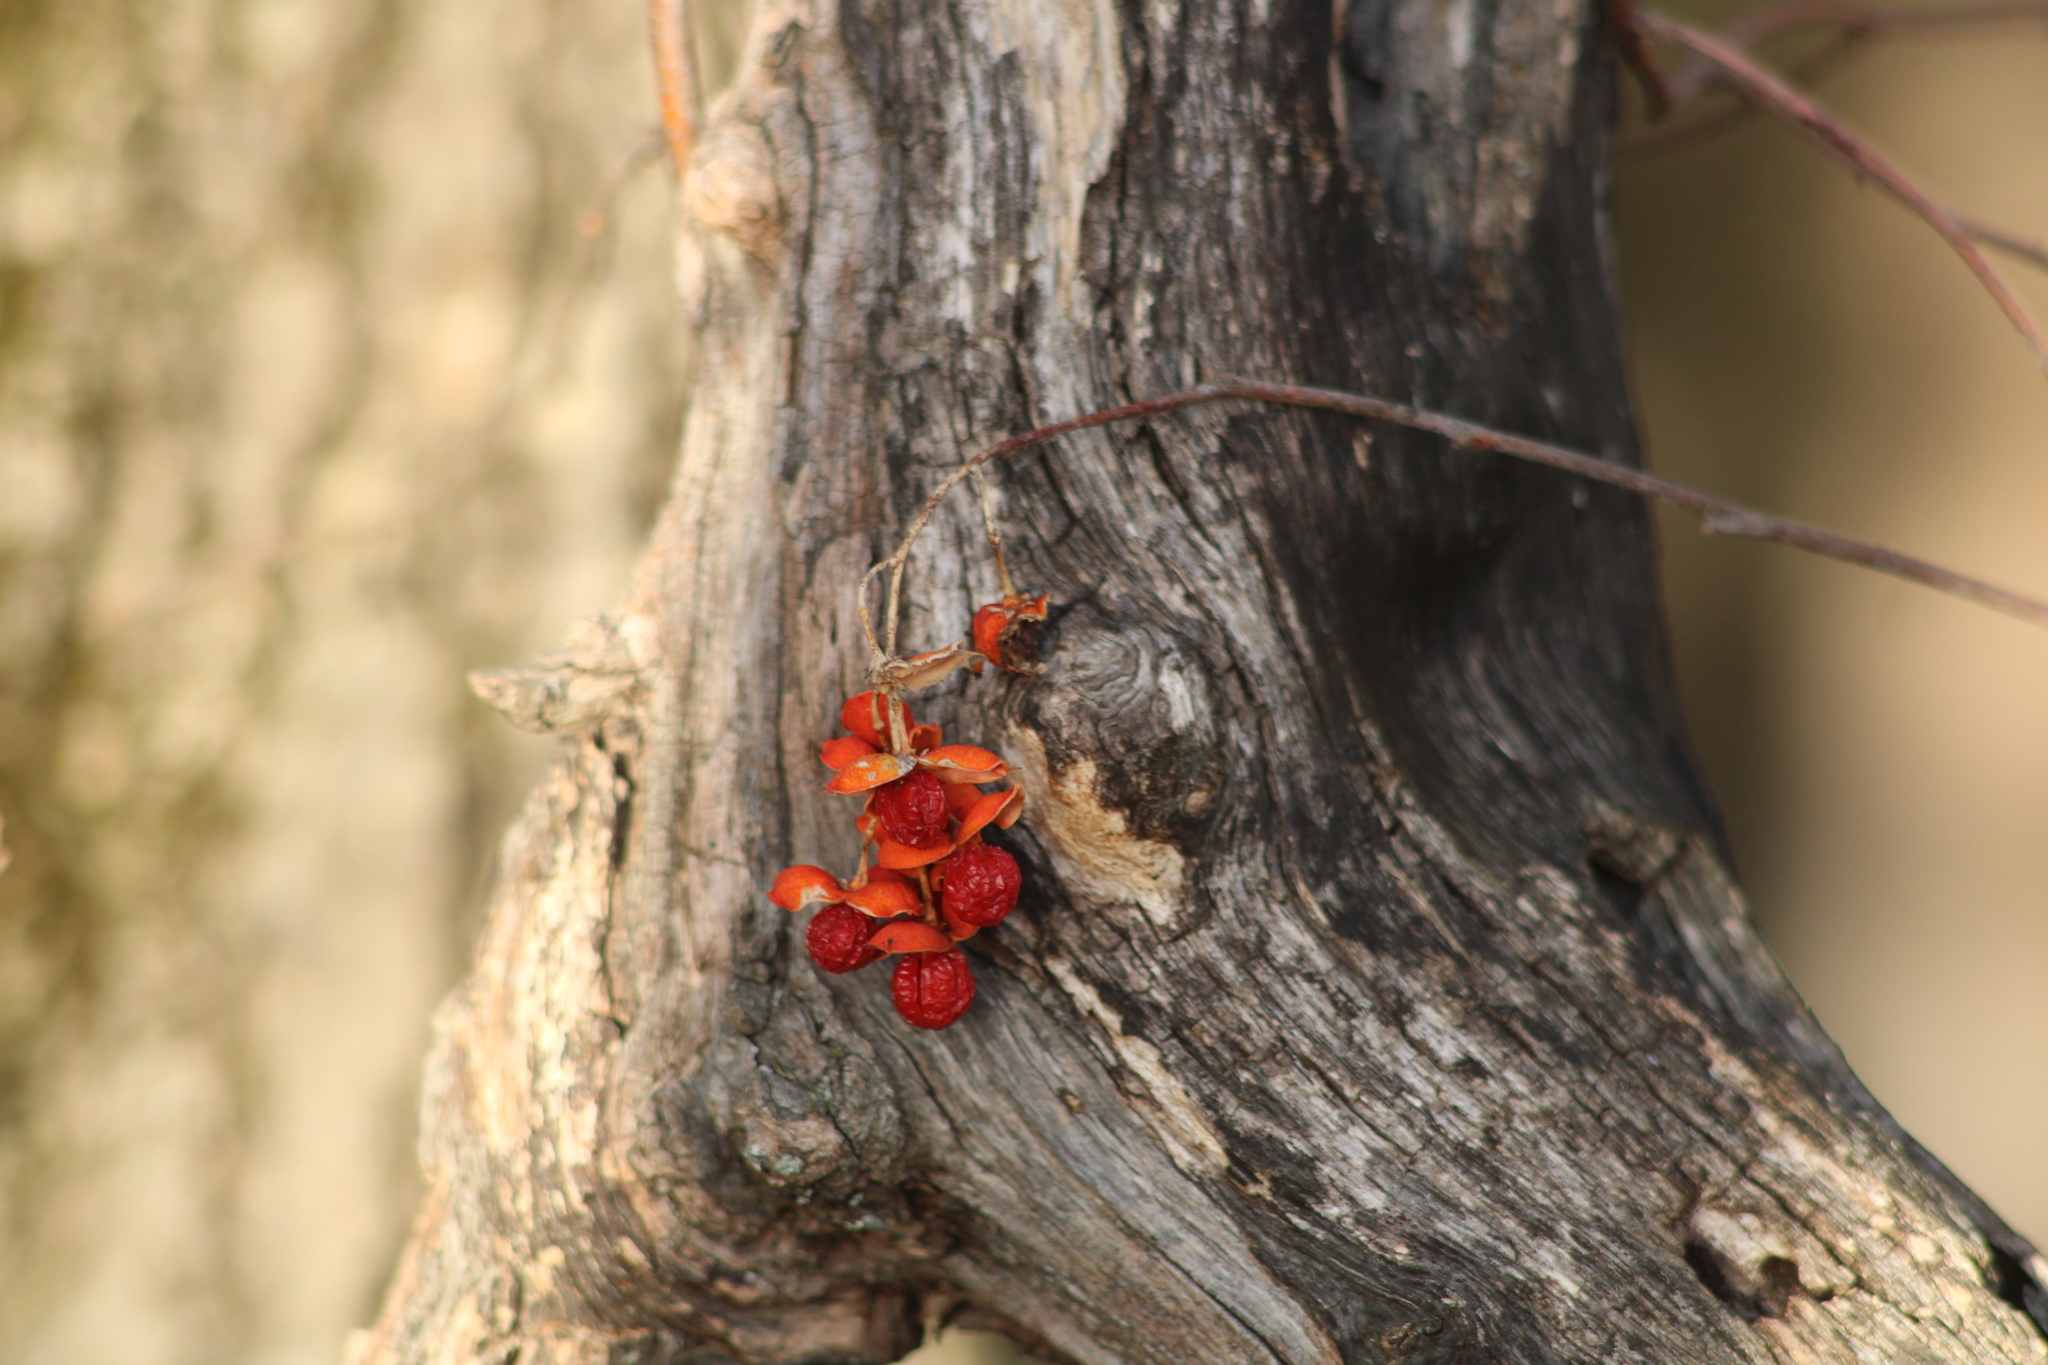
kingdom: Plantae
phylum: Tracheophyta
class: Magnoliopsida
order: Celastrales
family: Celastraceae
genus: Celastrus
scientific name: Celastrus scandens
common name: American bittersweet
